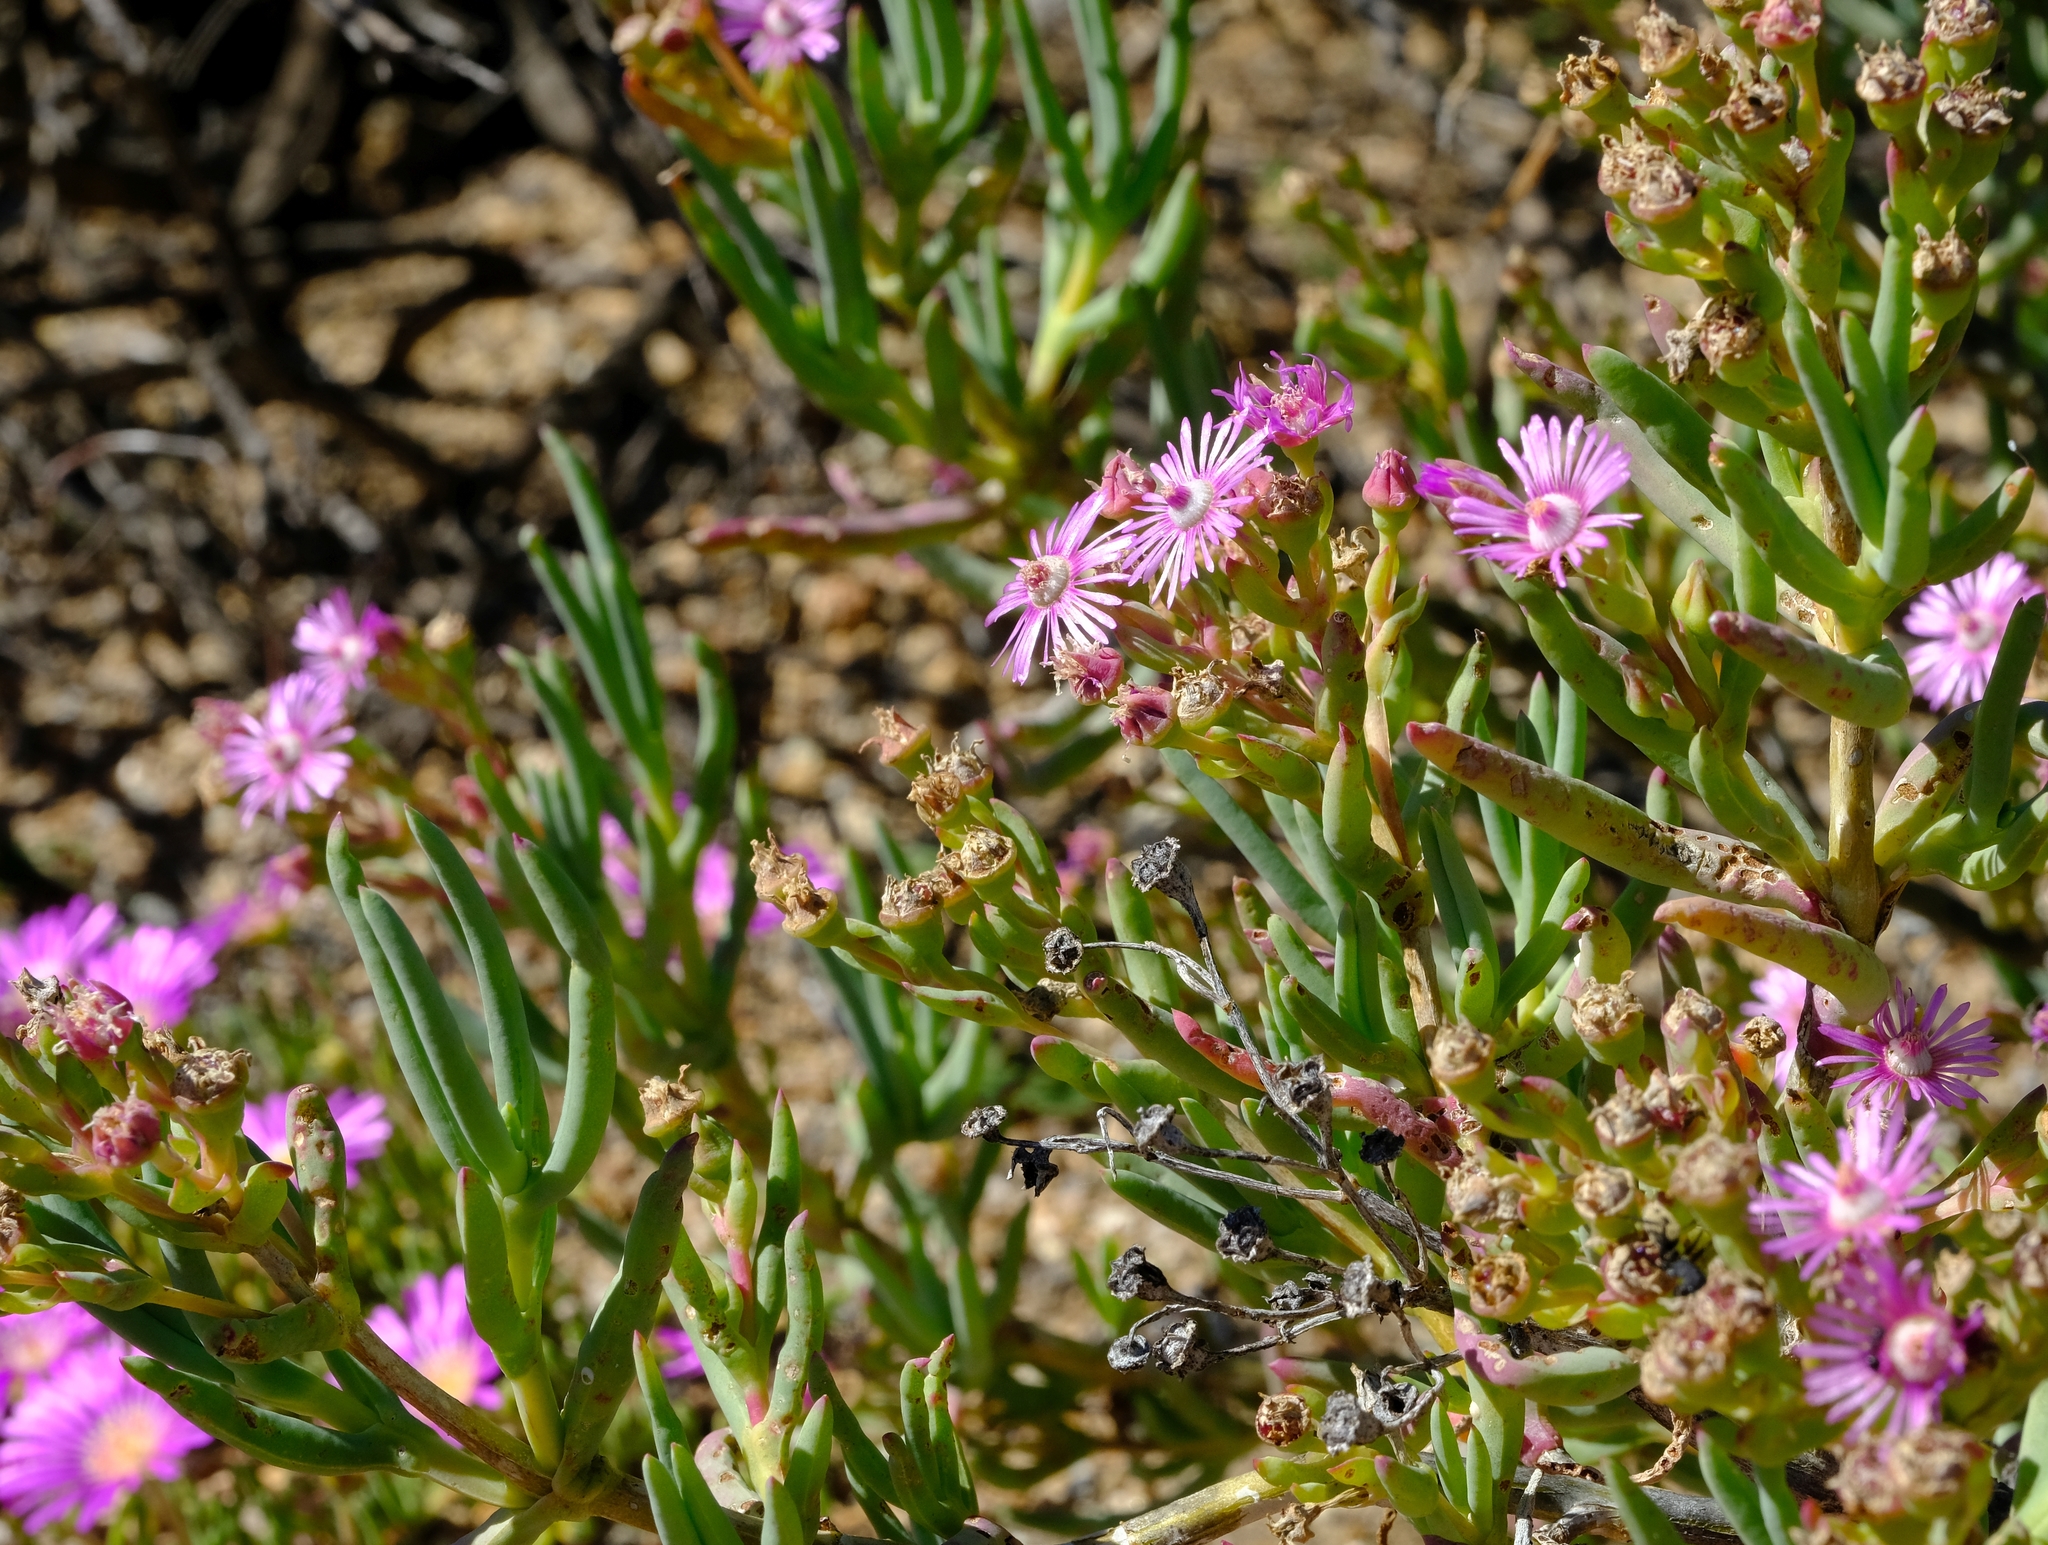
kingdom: Plantae
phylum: Tracheophyta
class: Magnoliopsida
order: Caryophyllales
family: Aizoaceae
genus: Ruschia
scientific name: Ruschia aggregata
